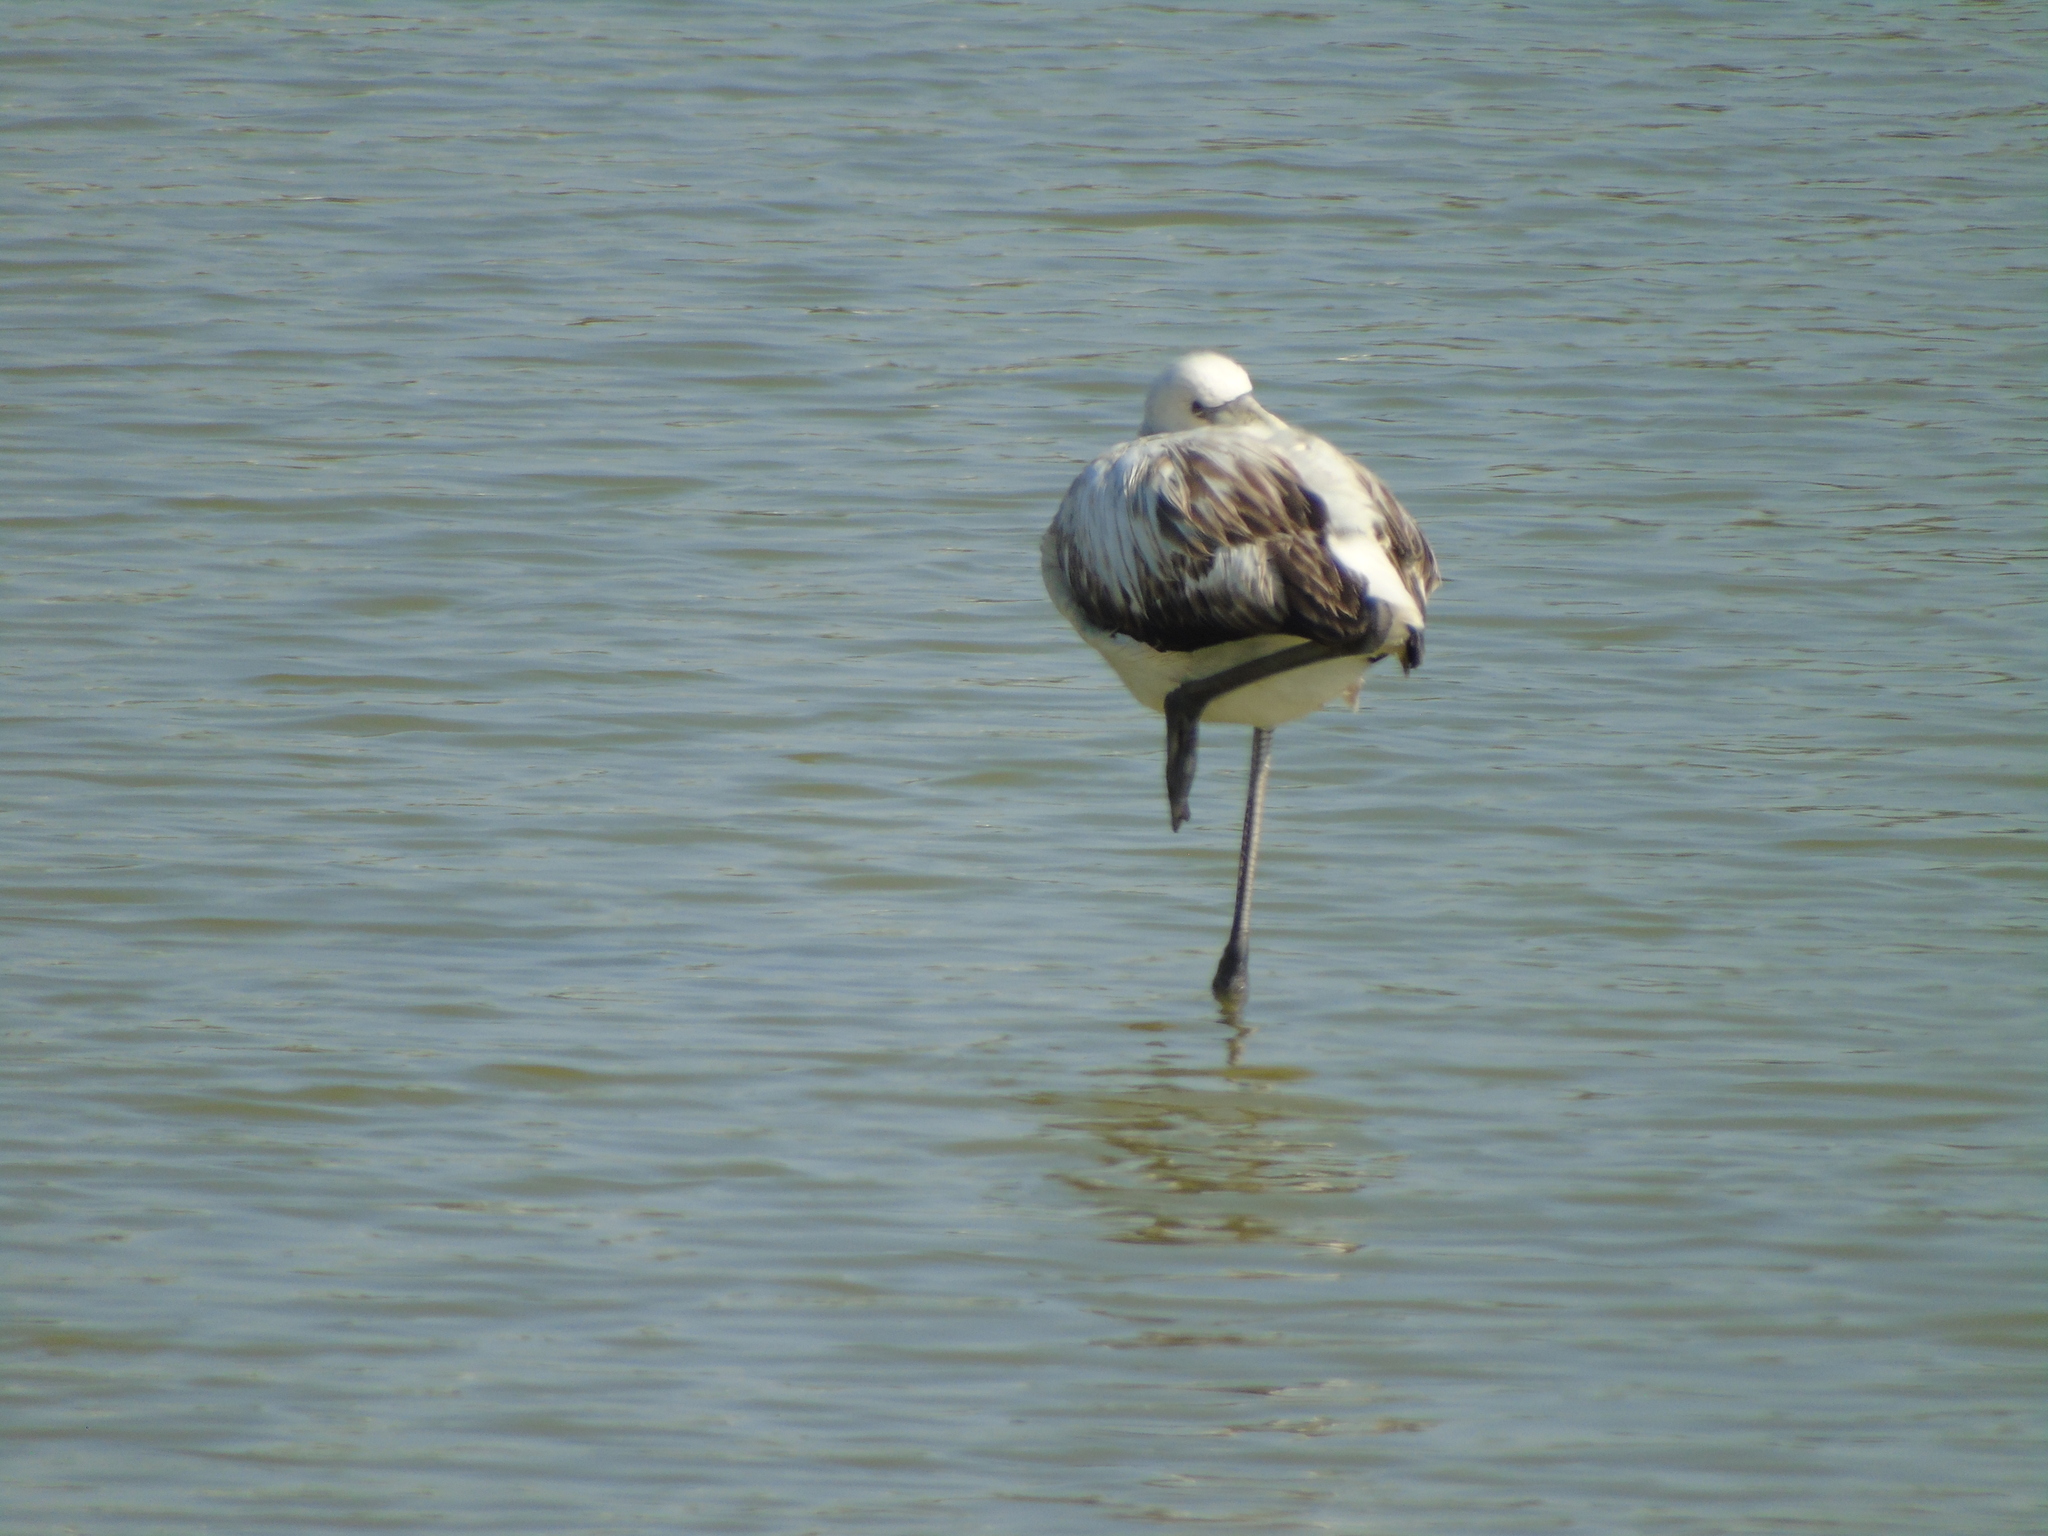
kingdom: Animalia
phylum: Chordata
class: Aves
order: Phoenicopteriformes
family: Phoenicopteridae
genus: Phoenicopterus
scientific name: Phoenicopterus roseus
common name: Greater flamingo
